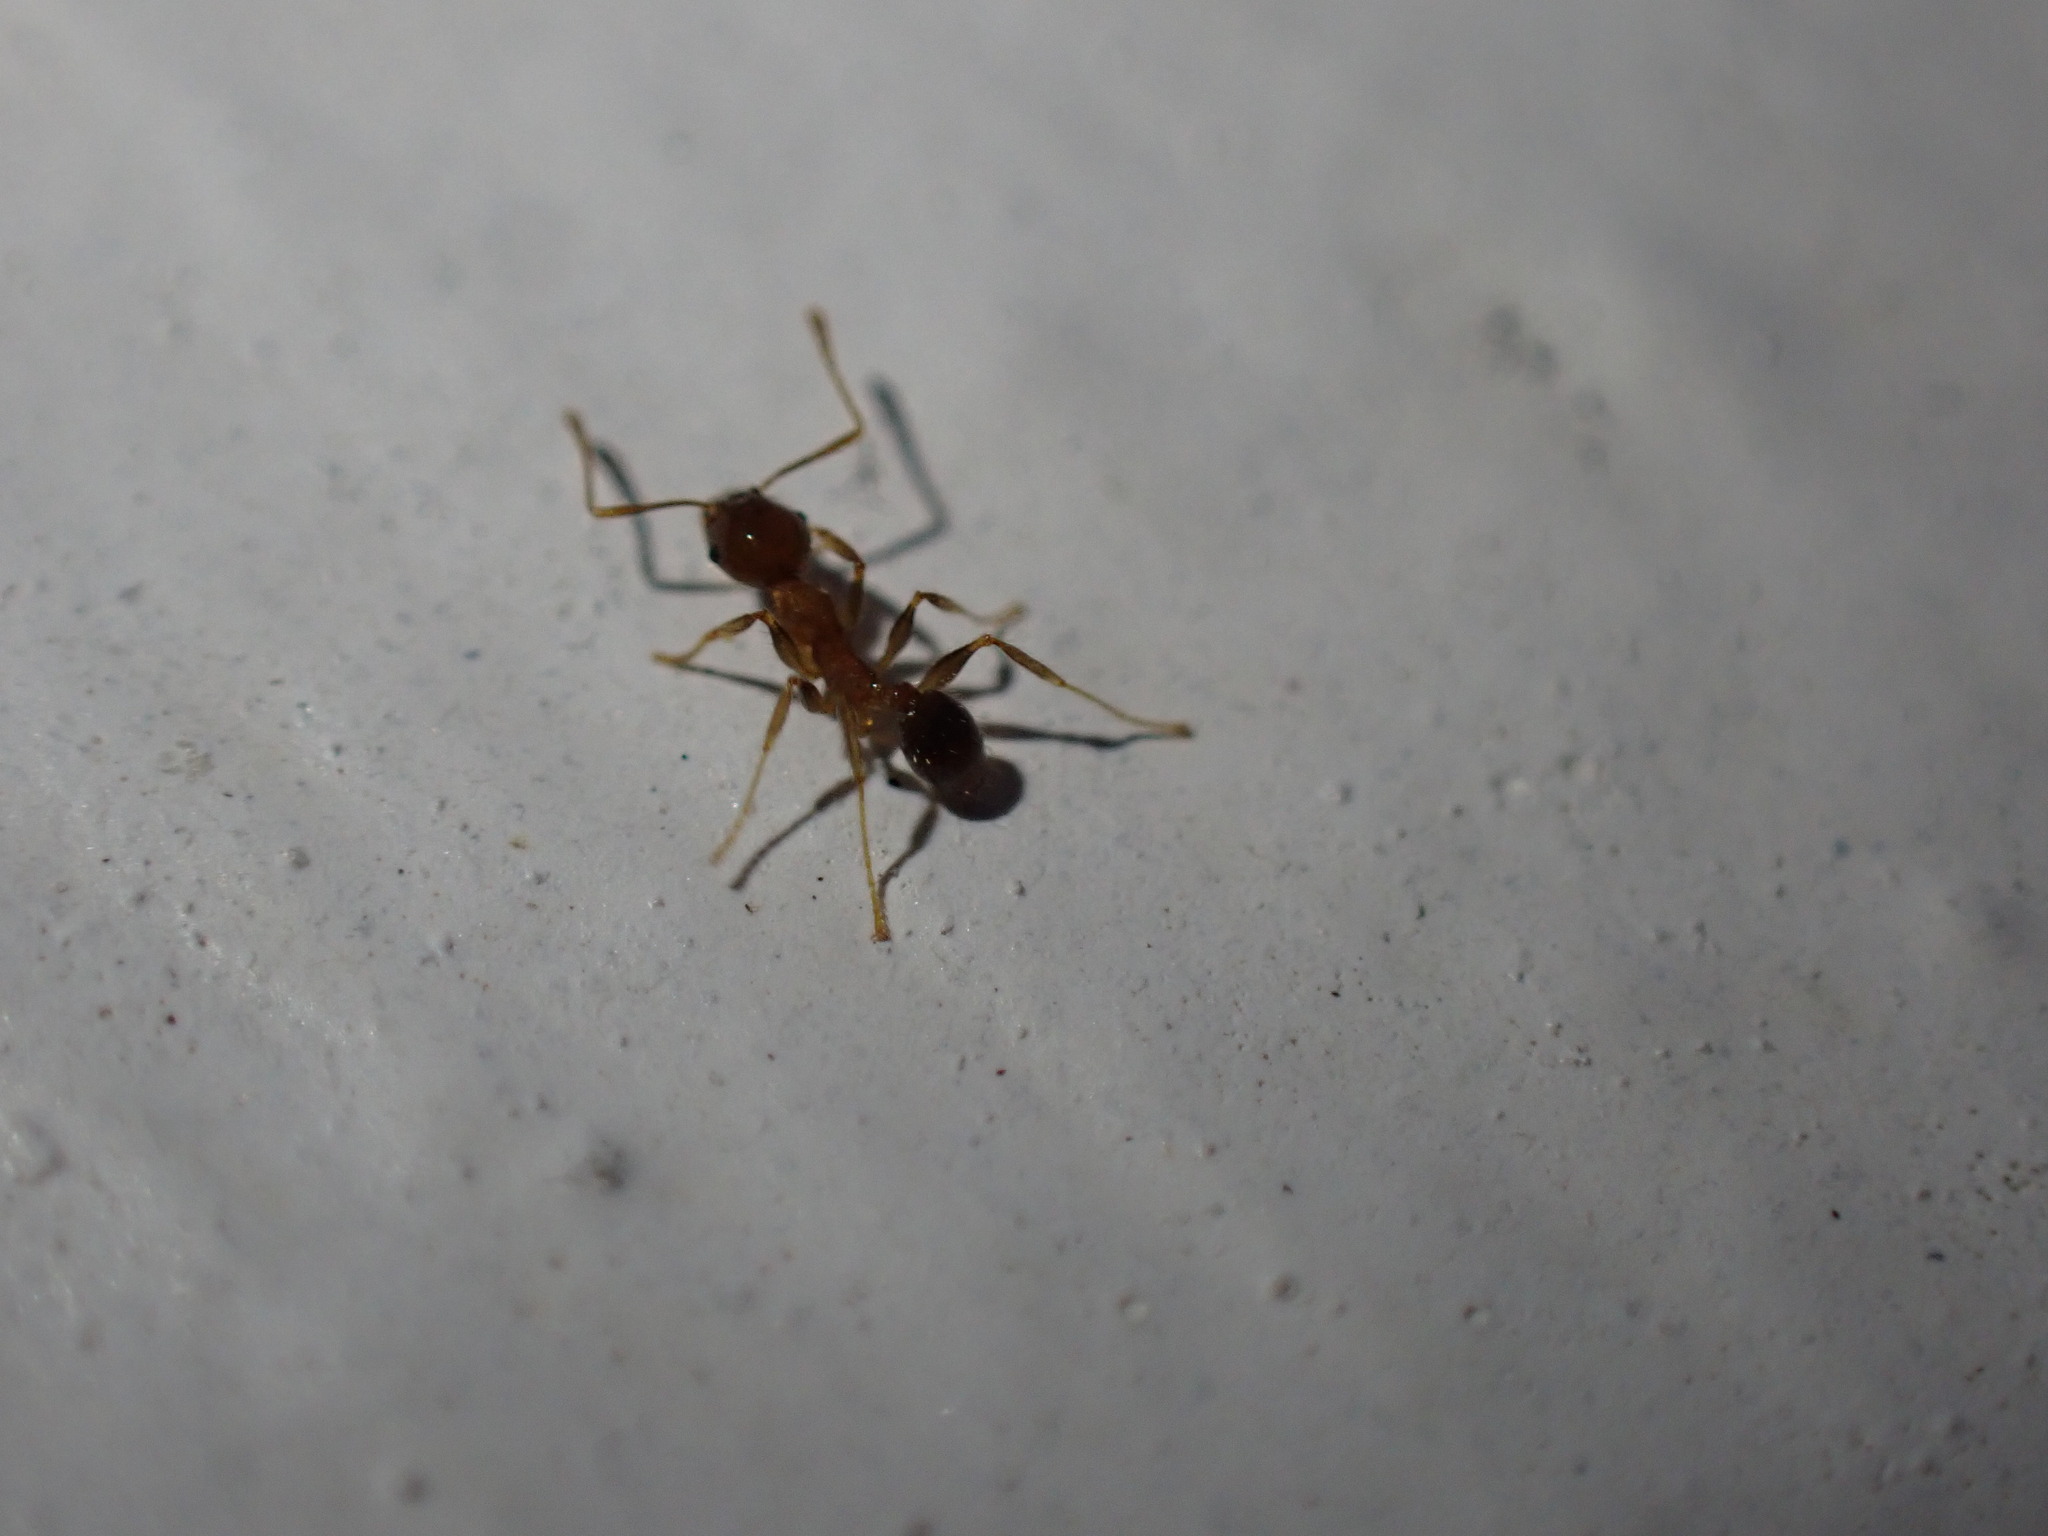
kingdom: Animalia
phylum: Arthropoda
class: Insecta
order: Hymenoptera
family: Formicidae
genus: Pheidole
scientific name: Pheidole megacephala
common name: Bigheaded ant
